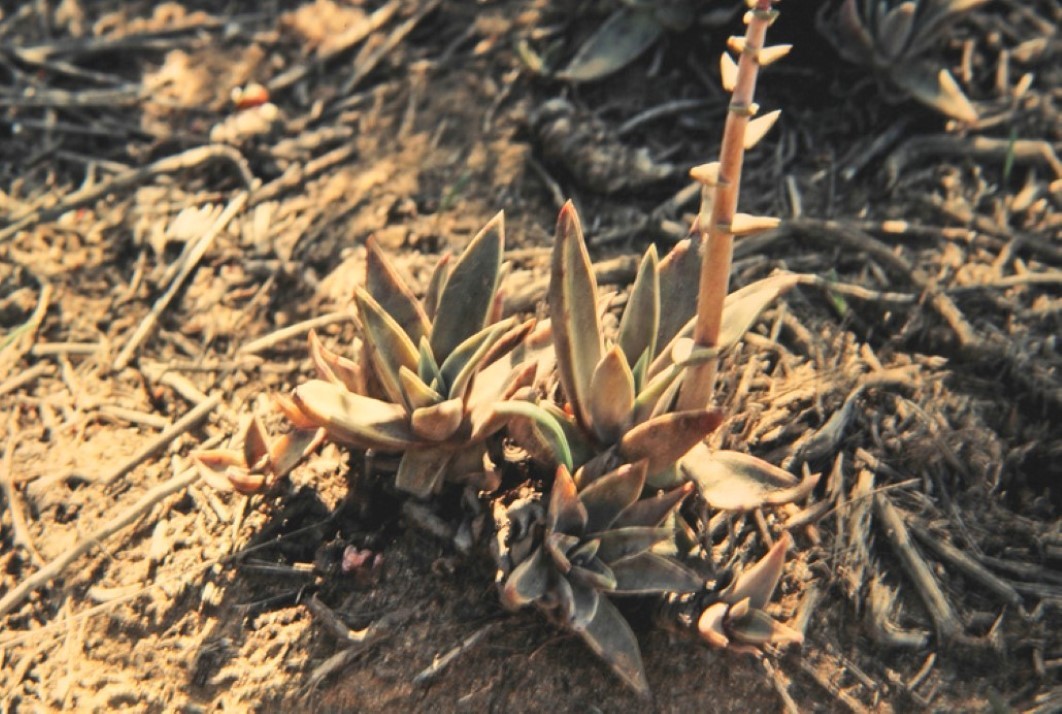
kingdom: Plantae
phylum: Tracheophyta
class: Magnoliopsida
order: Saxifragales
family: Crassulaceae
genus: Dudleya
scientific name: Dudleya lanceolata
